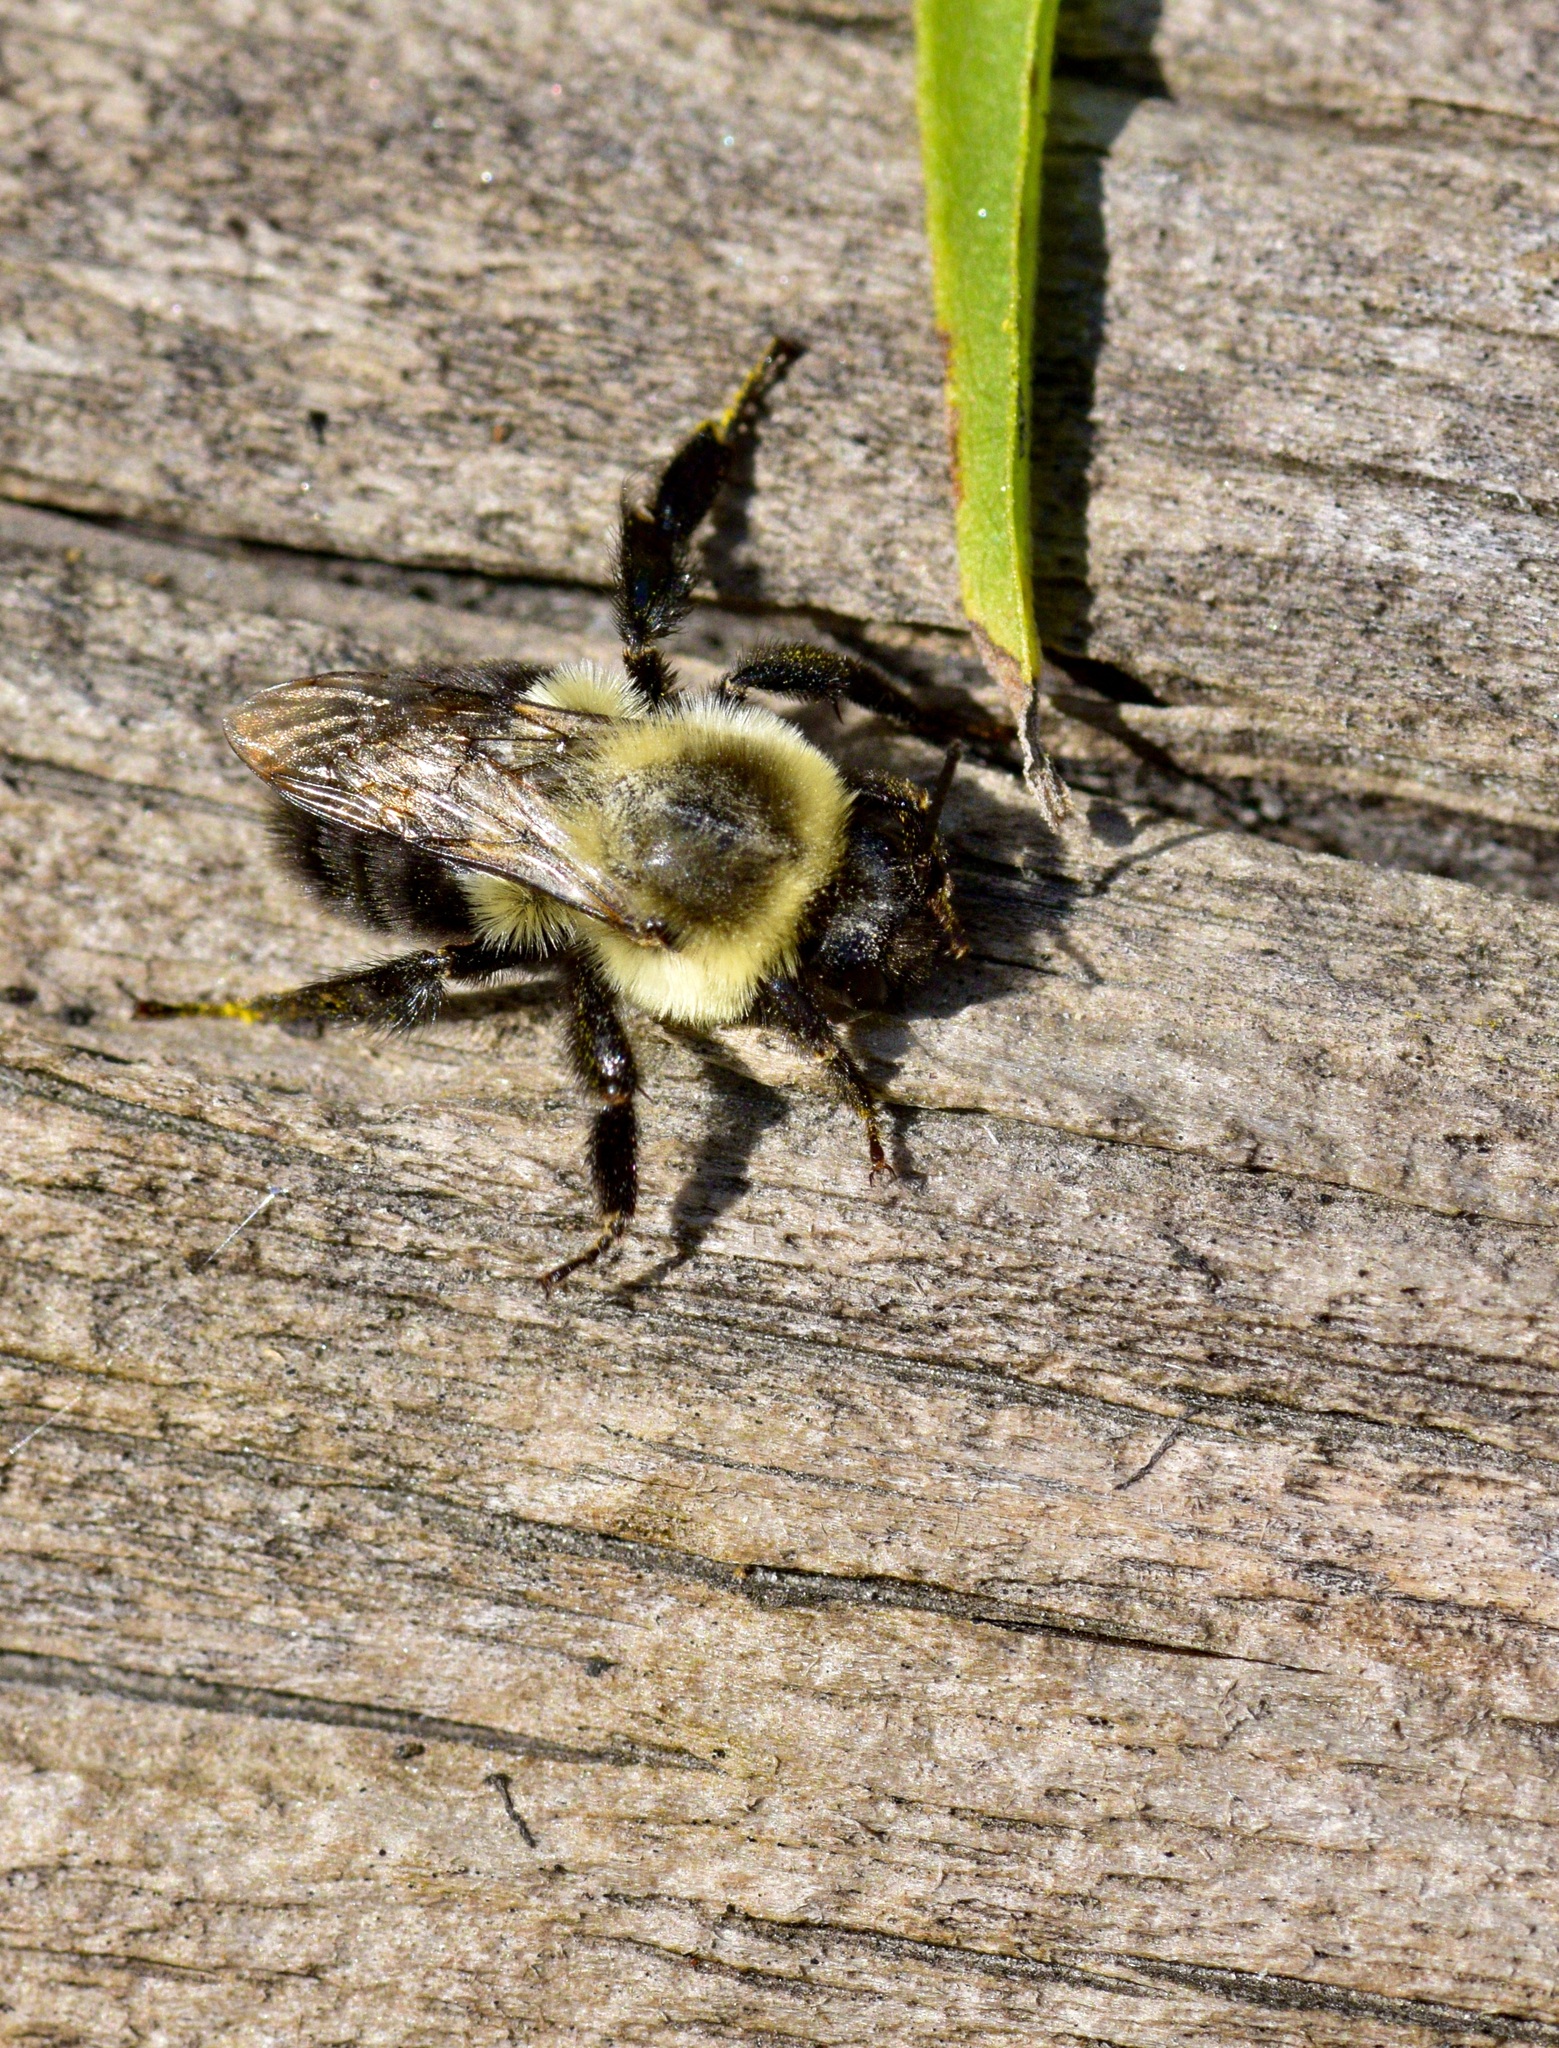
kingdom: Animalia
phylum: Arthropoda
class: Insecta
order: Hymenoptera
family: Apidae
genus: Bombus
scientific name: Bombus impatiens
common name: Common eastern bumble bee
